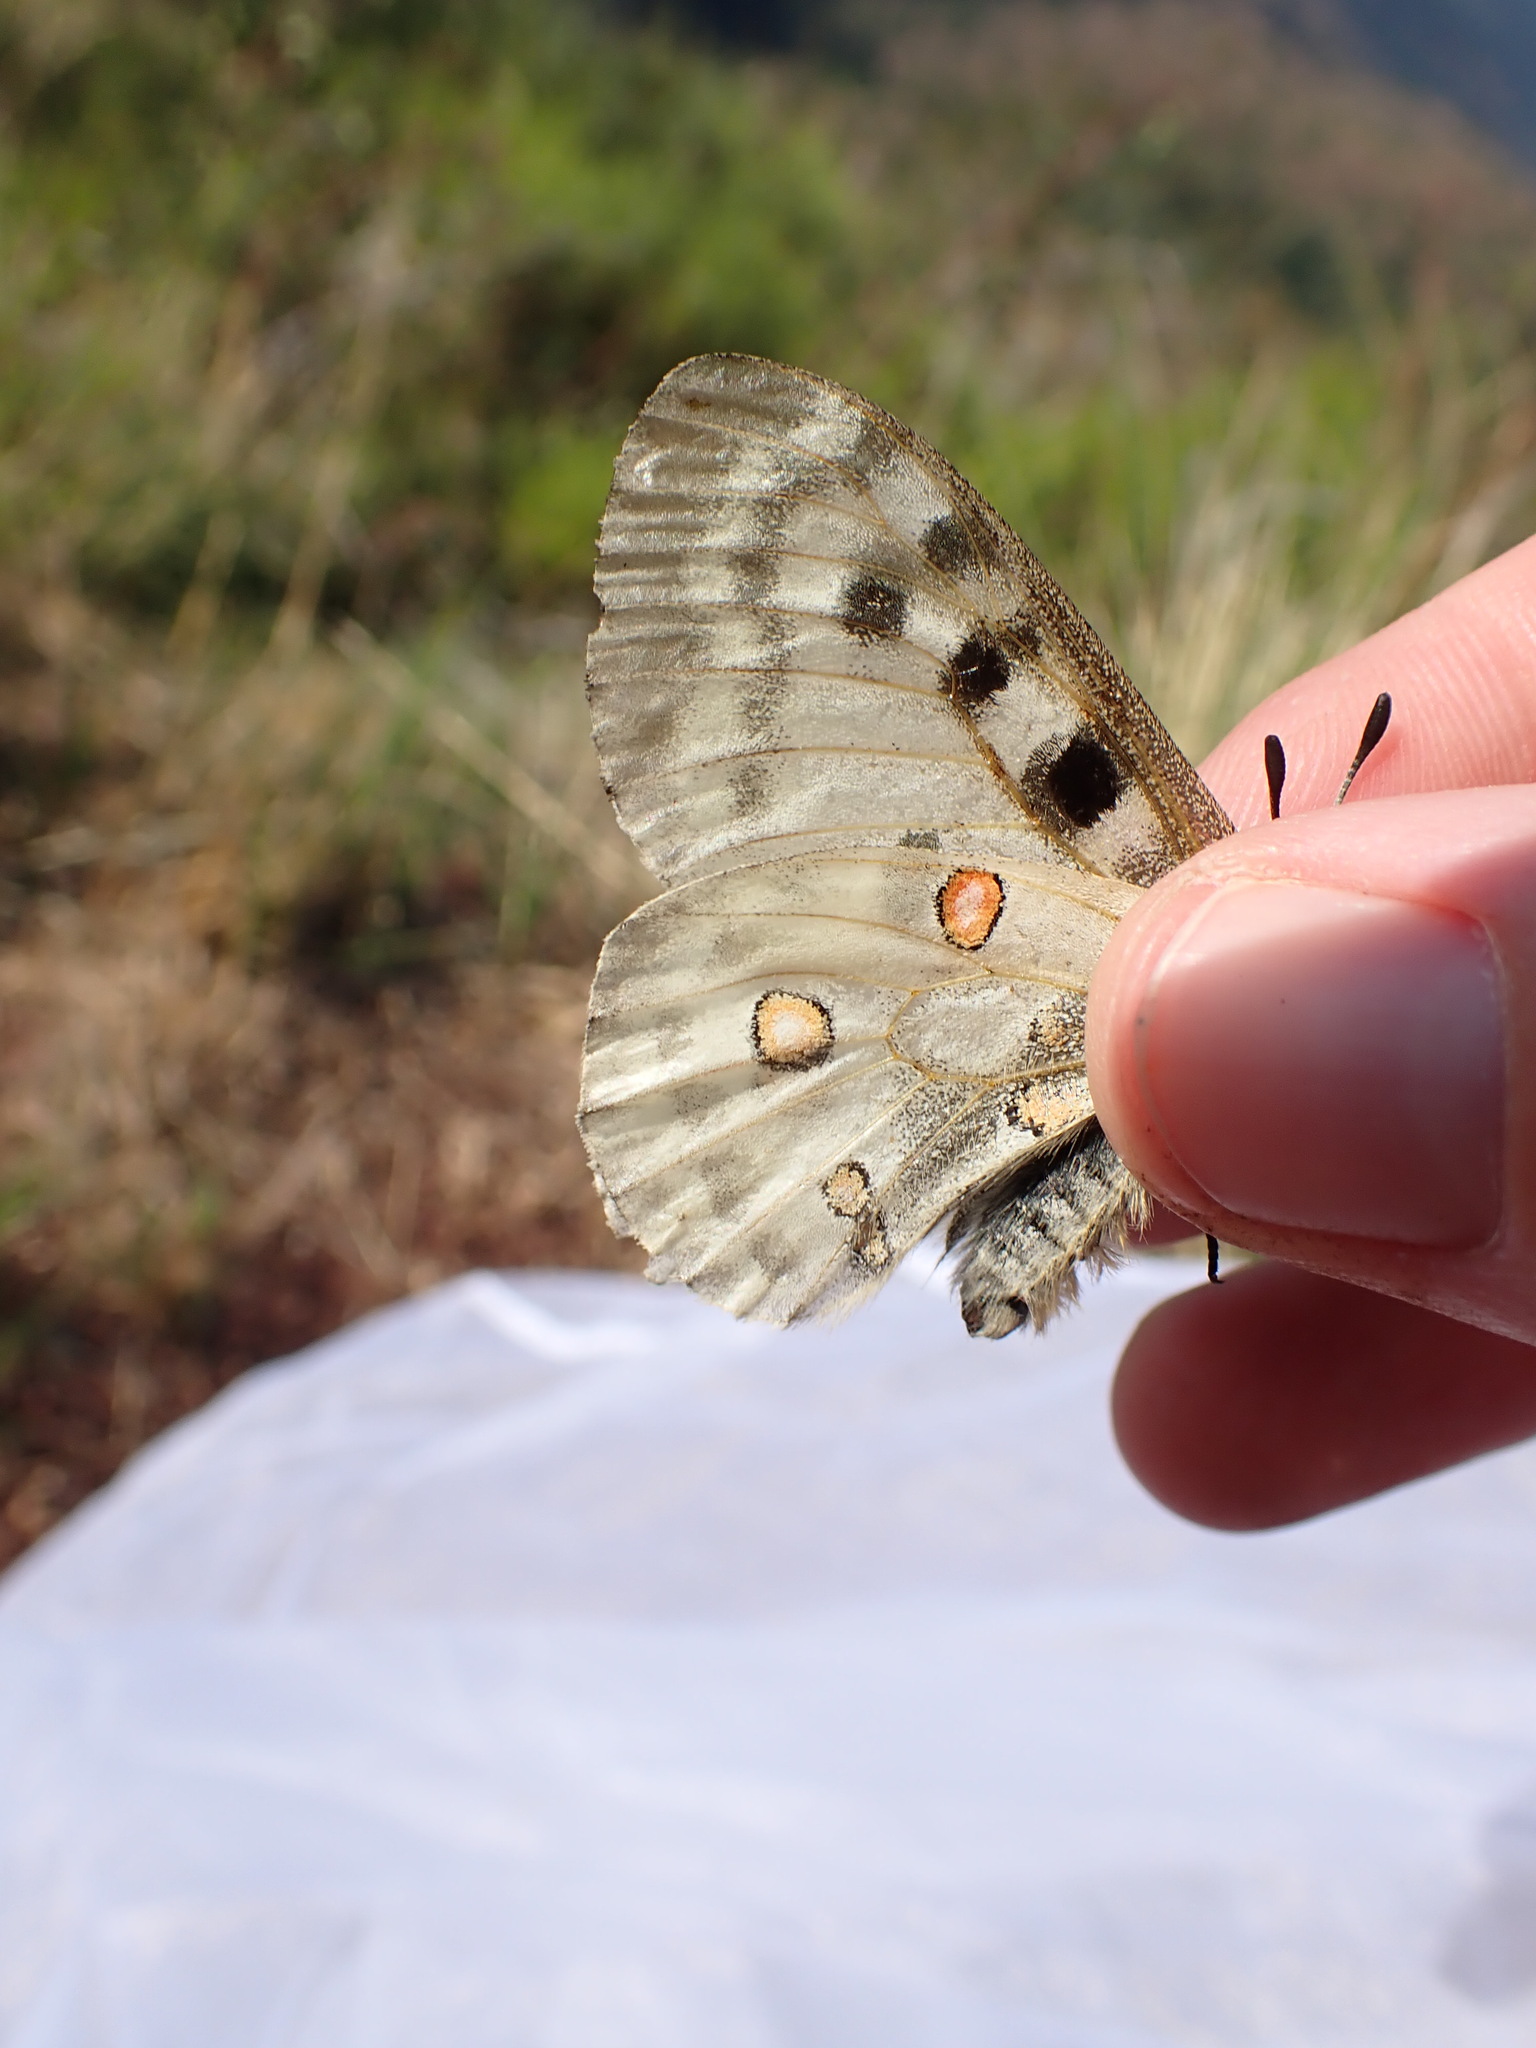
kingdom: Animalia
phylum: Arthropoda
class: Insecta
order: Lepidoptera
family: Papilionidae
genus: Parnassius
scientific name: Parnassius apollo
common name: Apollo
